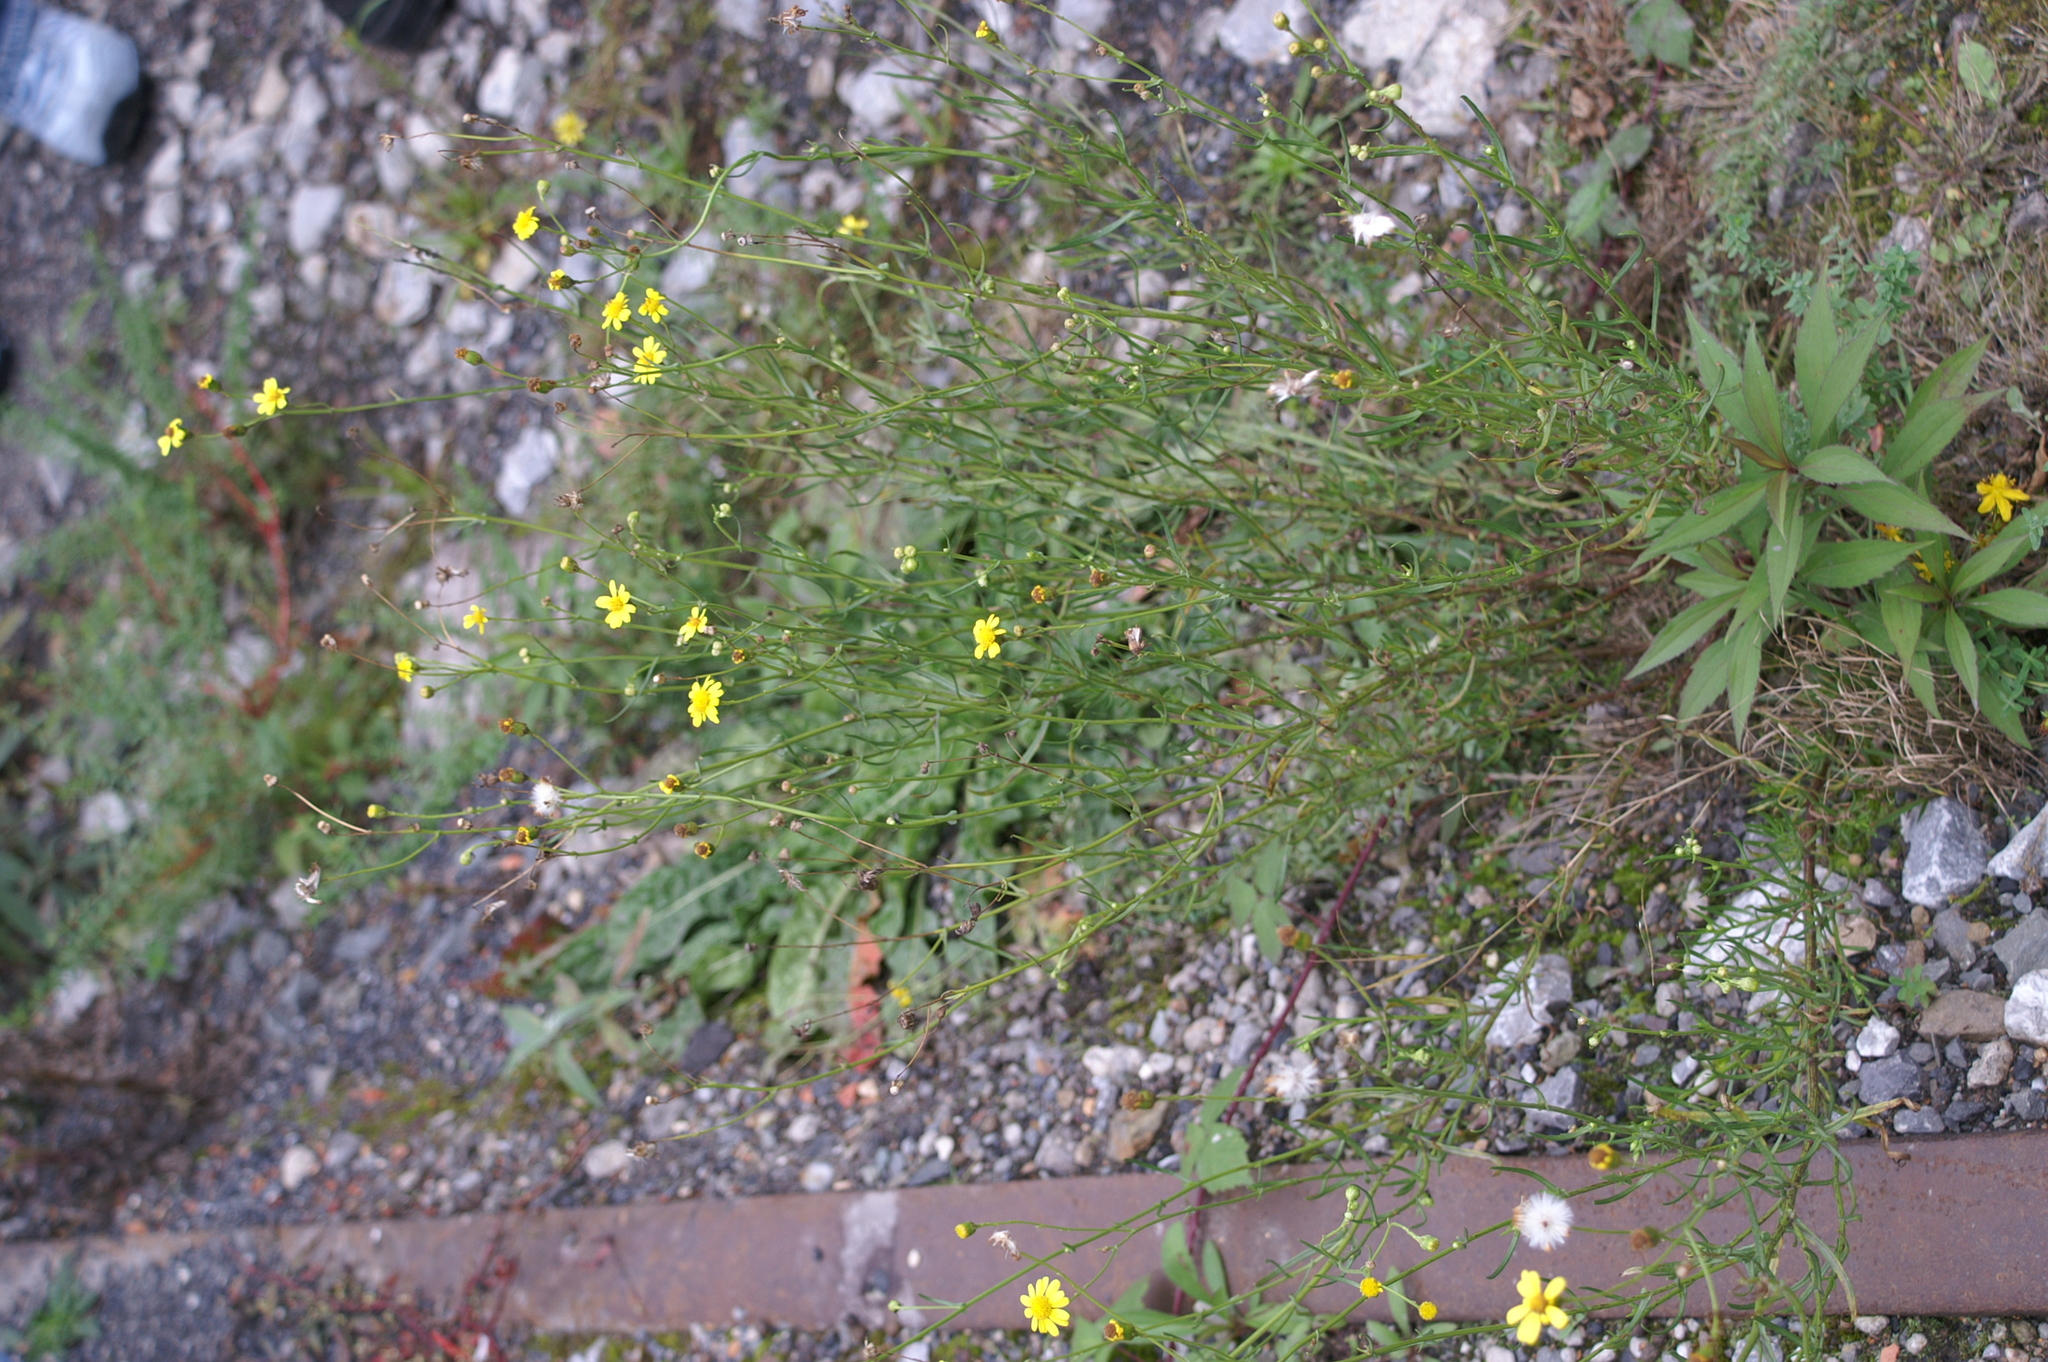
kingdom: Plantae
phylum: Tracheophyta
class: Magnoliopsida
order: Asterales
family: Asteraceae
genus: Senecio
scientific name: Senecio inaequidens
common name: Narrow-leaved ragwort
